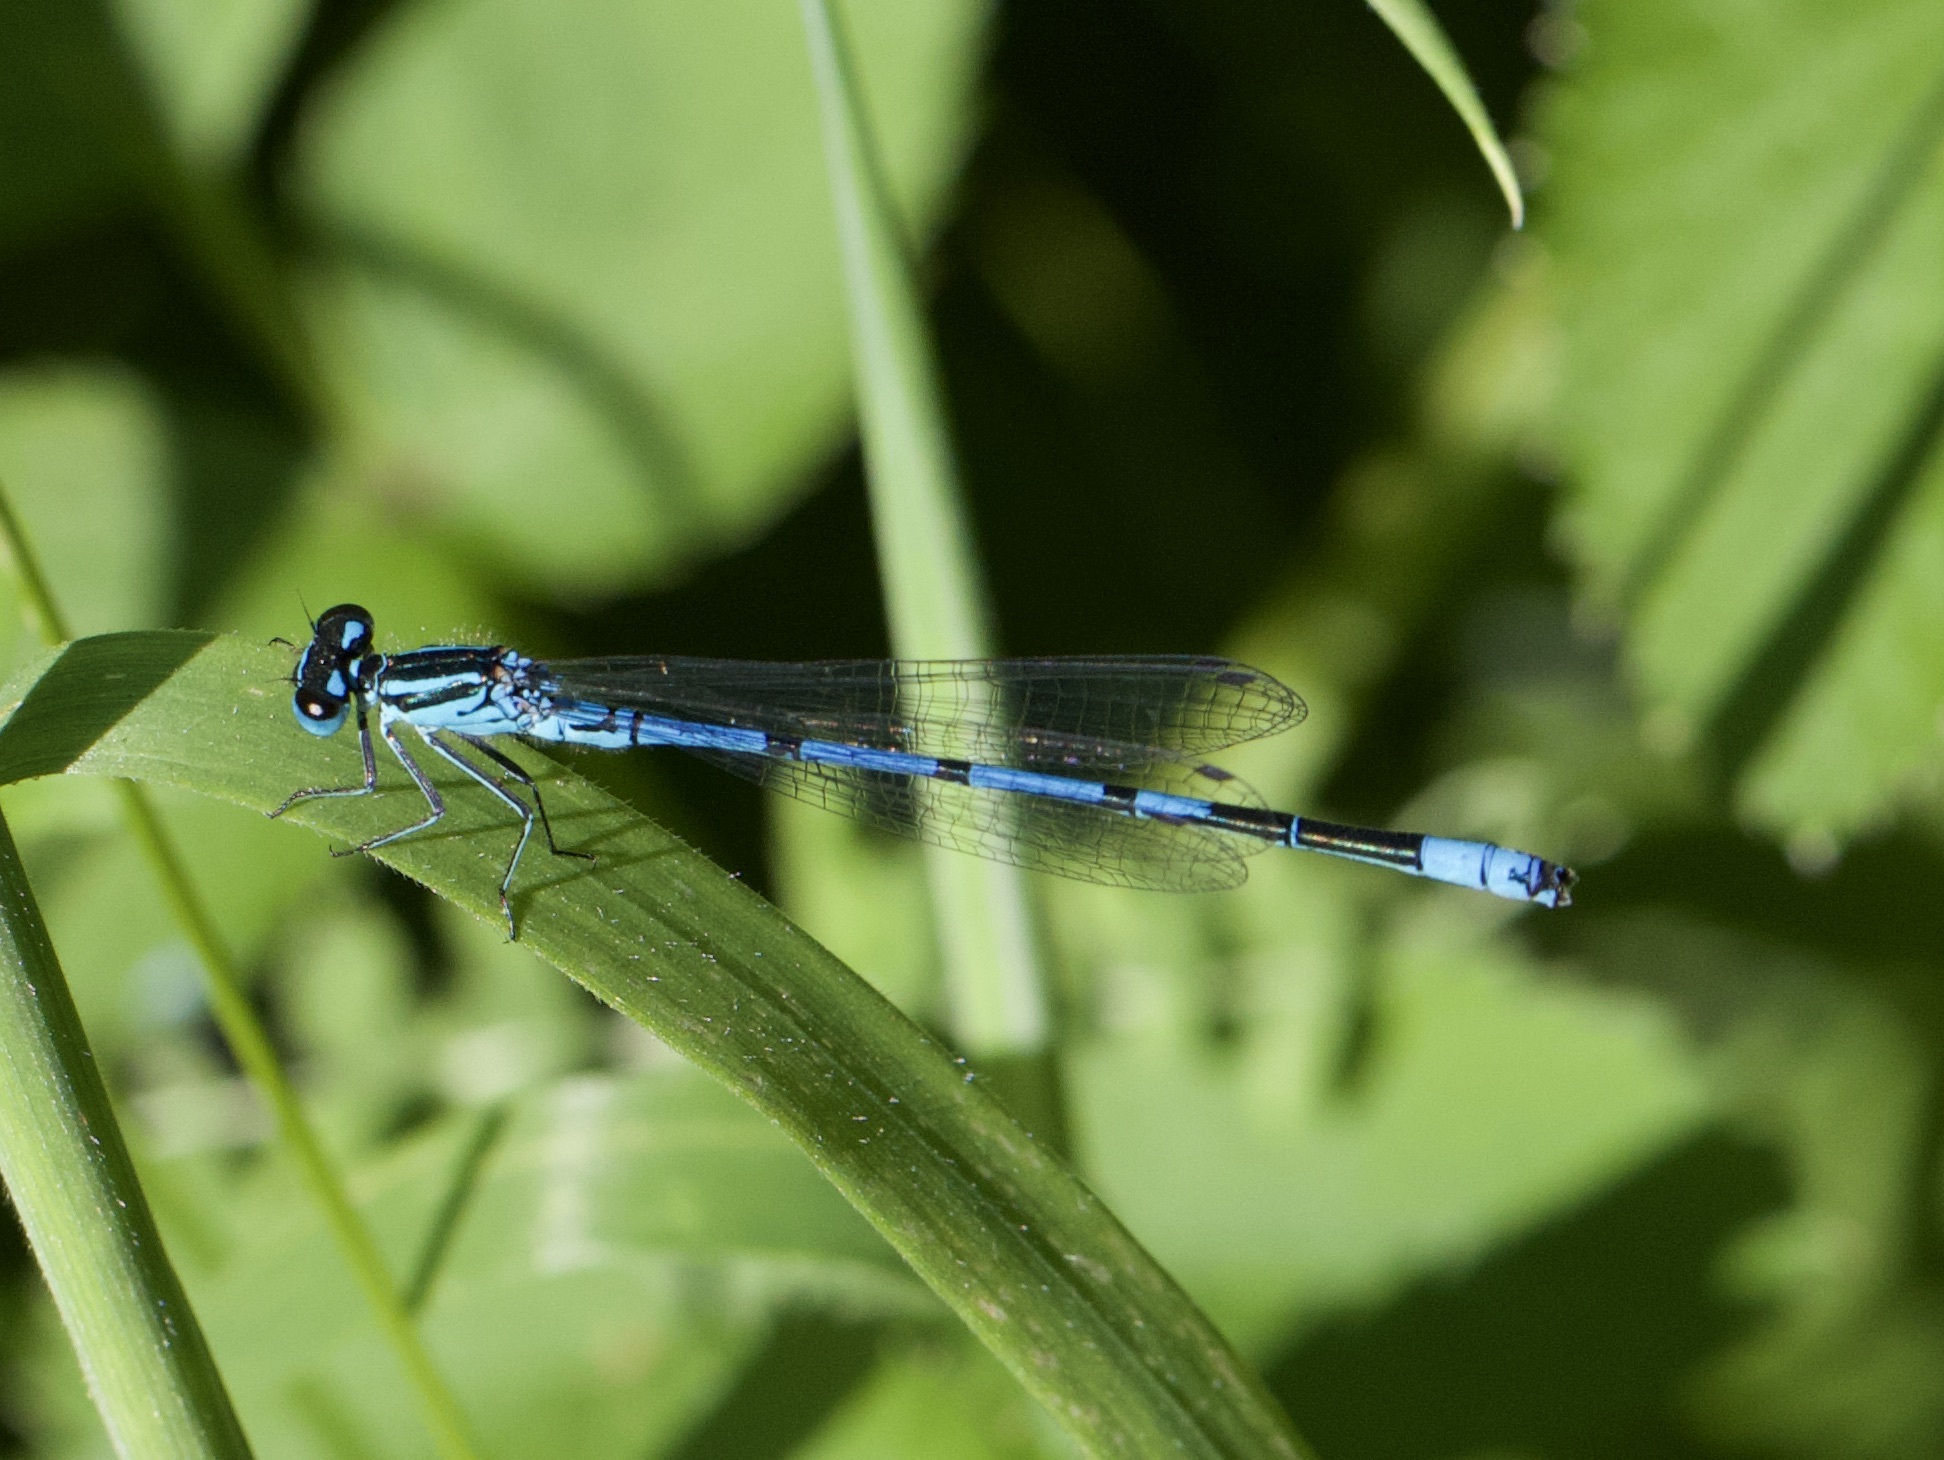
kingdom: Animalia
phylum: Arthropoda
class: Insecta
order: Odonata
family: Coenagrionidae
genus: Coenagrion
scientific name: Coenagrion puella
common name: Azure damselfly
